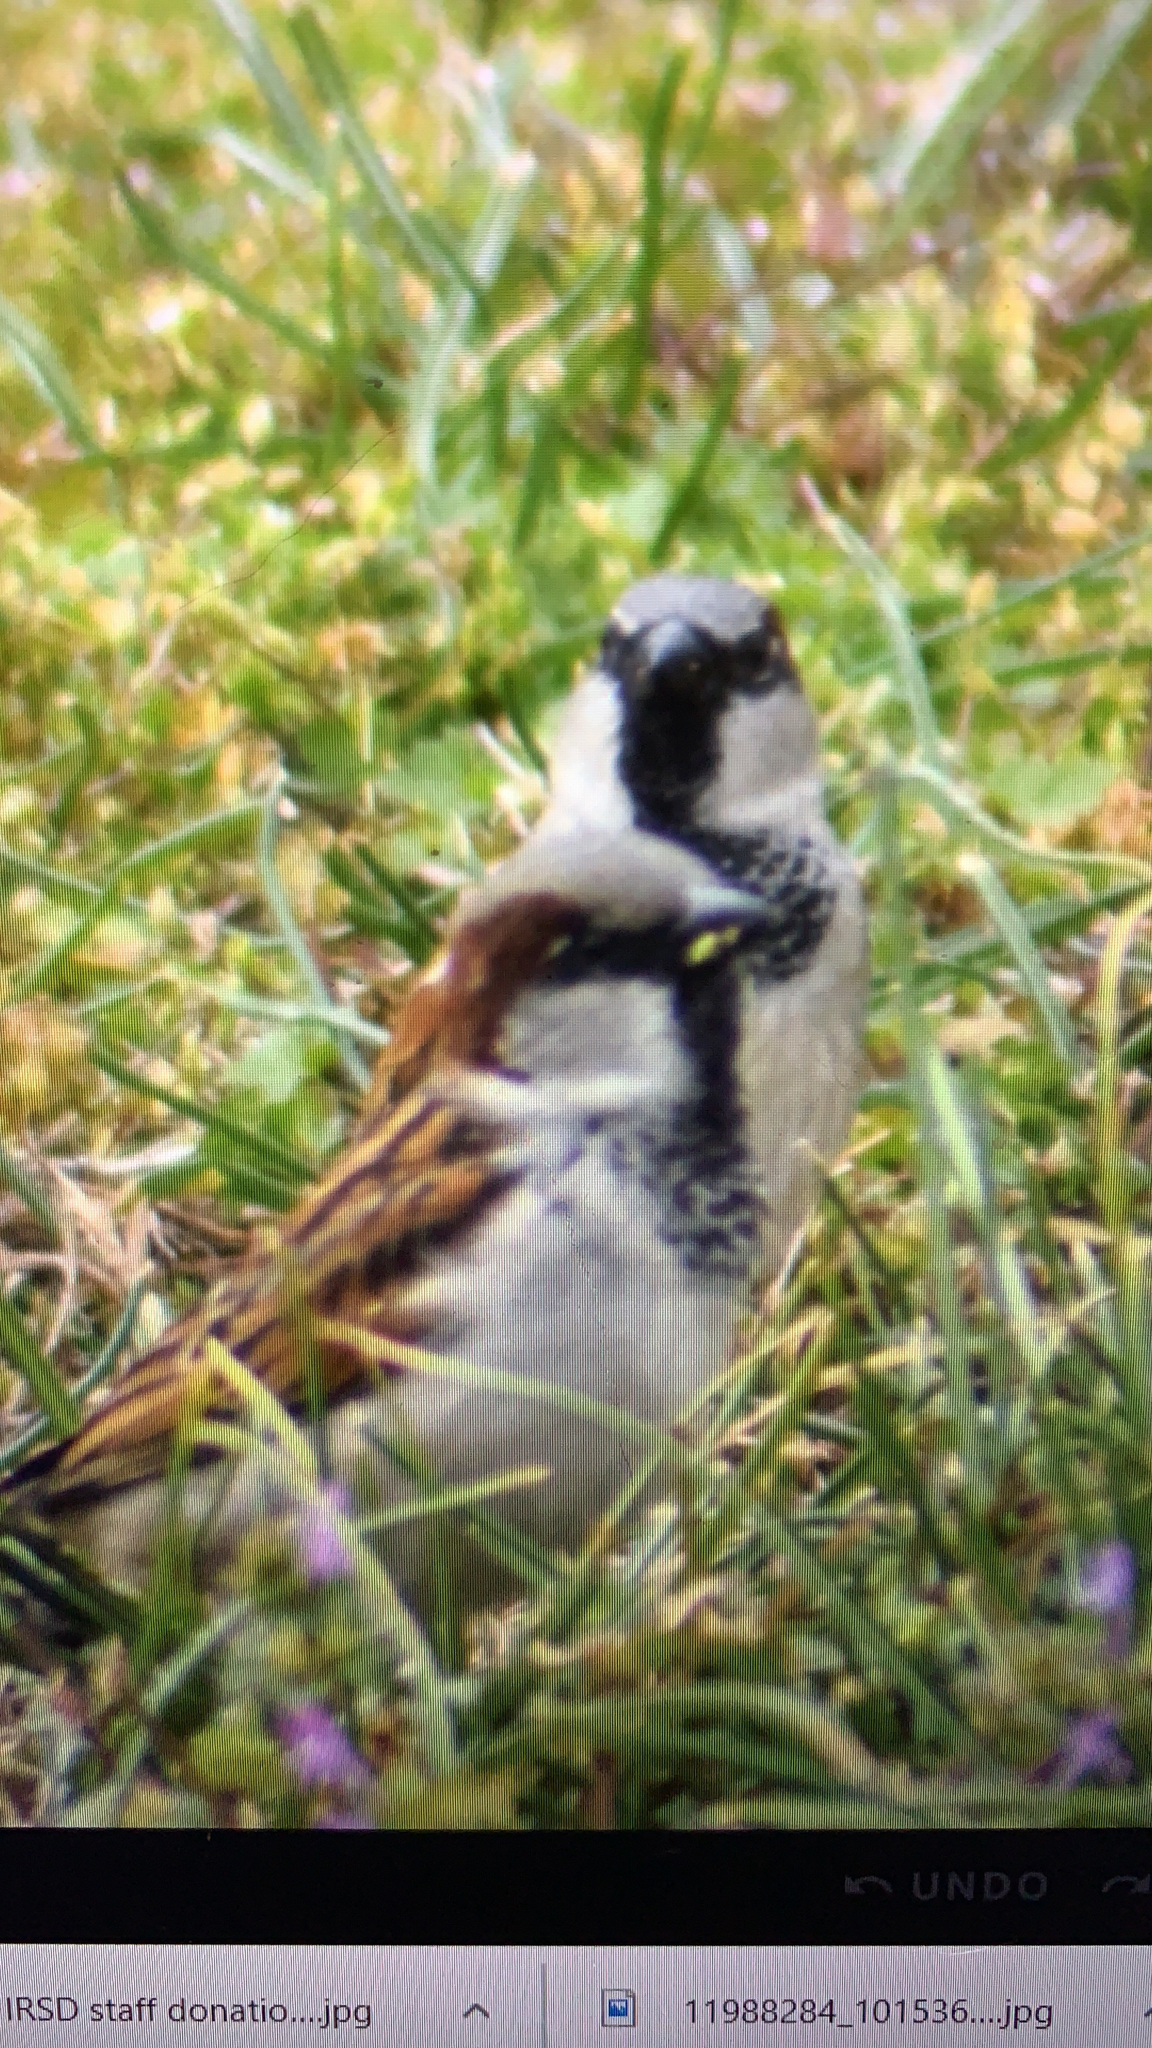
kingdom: Animalia
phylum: Chordata
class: Aves
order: Passeriformes
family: Passeridae
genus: Passer
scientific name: Passer domesticus
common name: House sparrow
